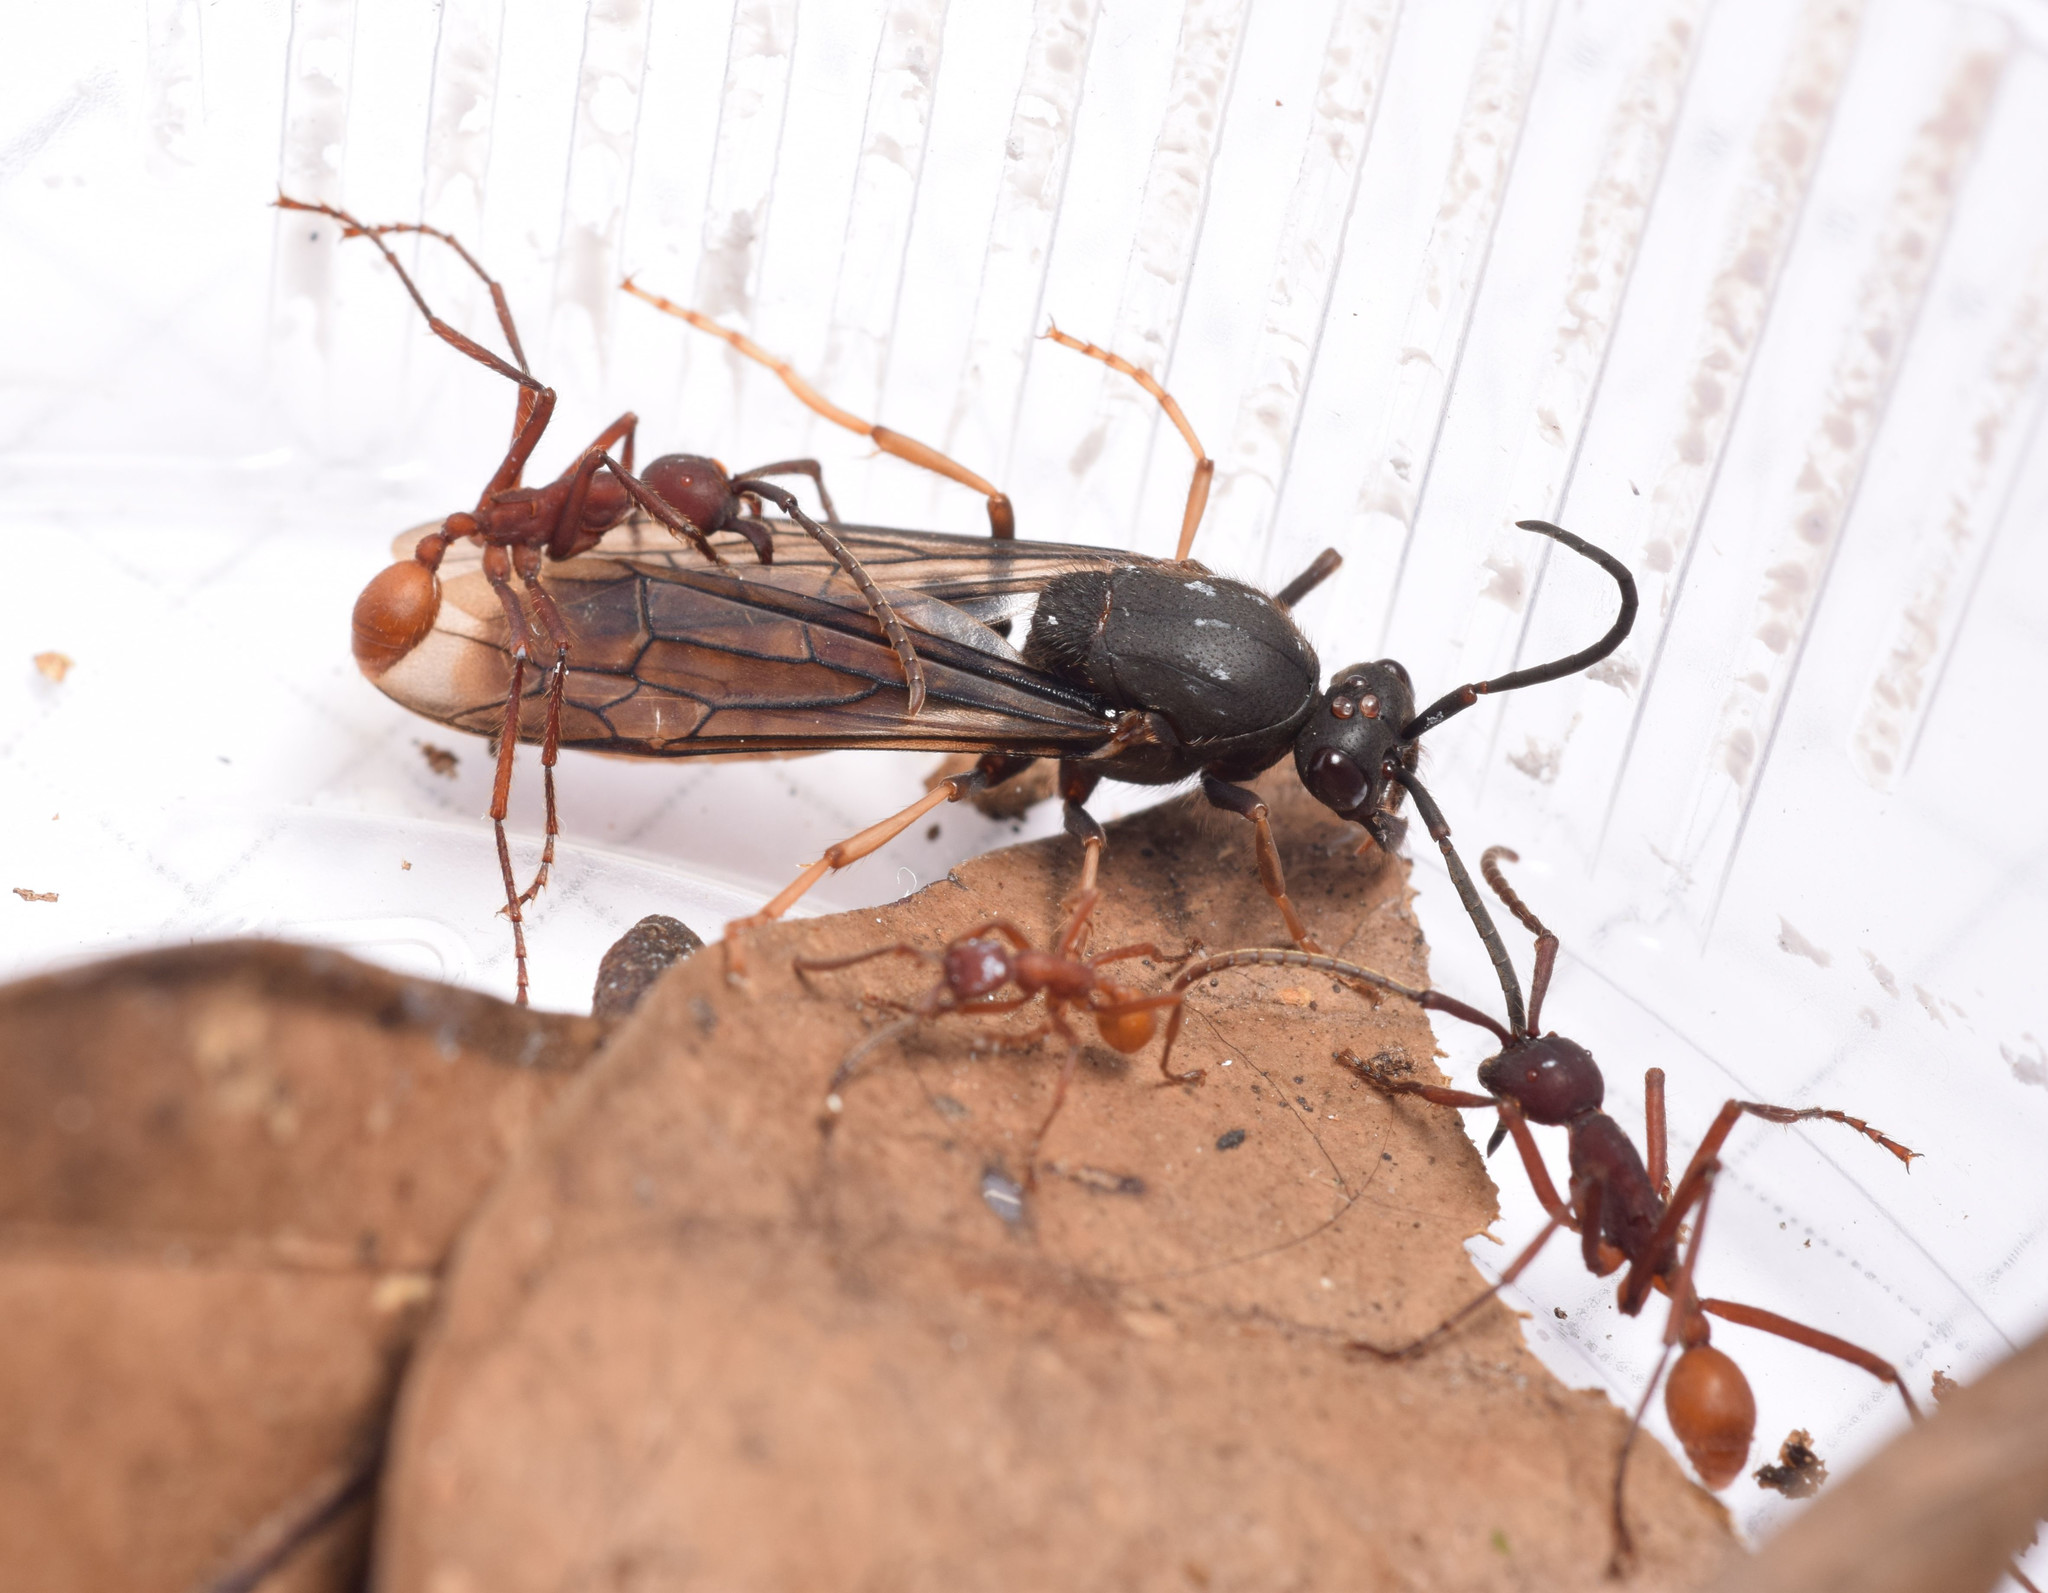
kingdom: Animalia
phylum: Arthropoda
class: Insecta
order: Hymenoptera
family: Formicidae
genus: Eciton
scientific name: Eciton vagans
